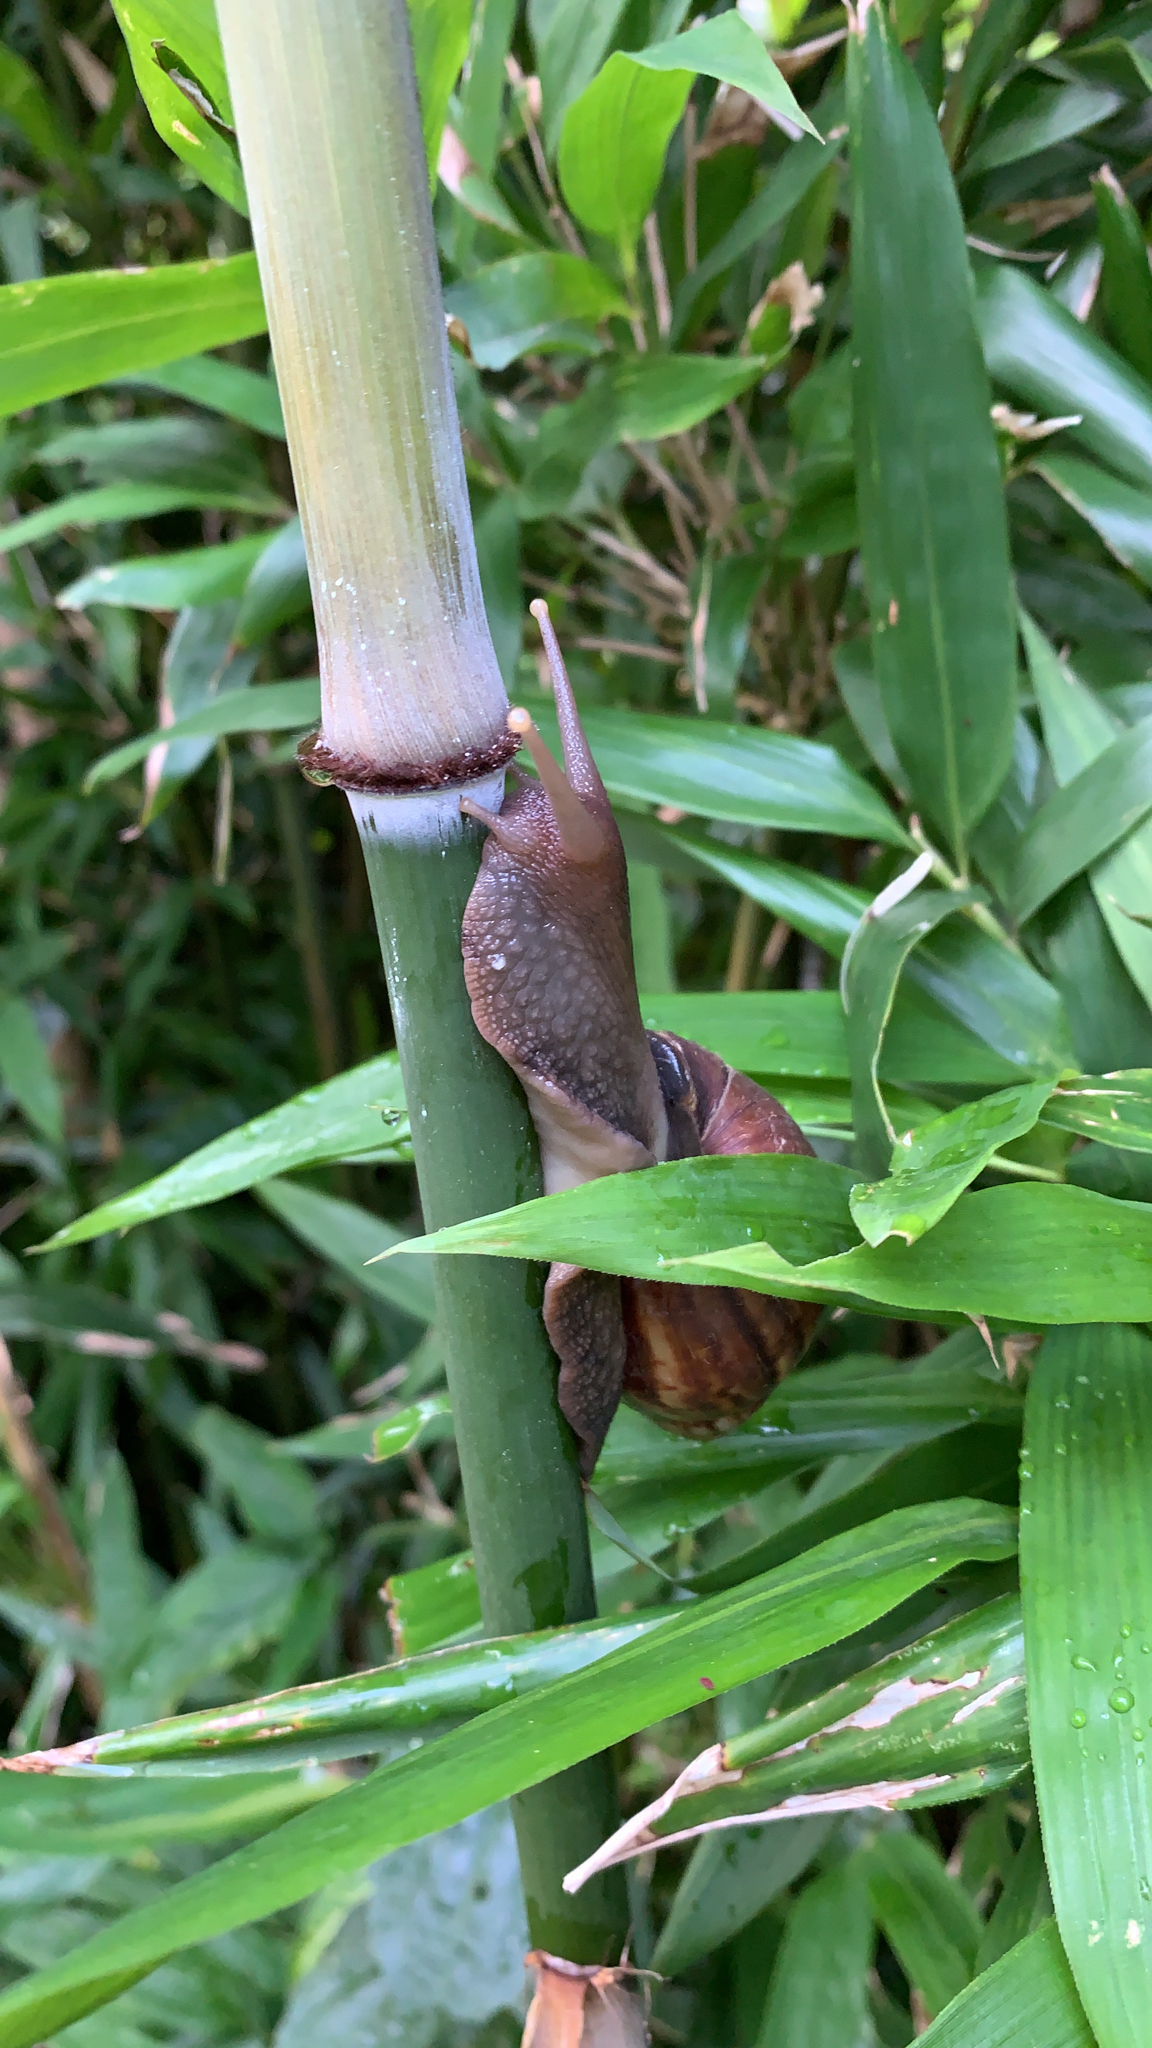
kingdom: Animalia
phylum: Mollusca
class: Gastropoda
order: Stylommatophora
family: Achatinidae
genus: Lissachatina
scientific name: Lissachatina fulica
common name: Giant african snail
